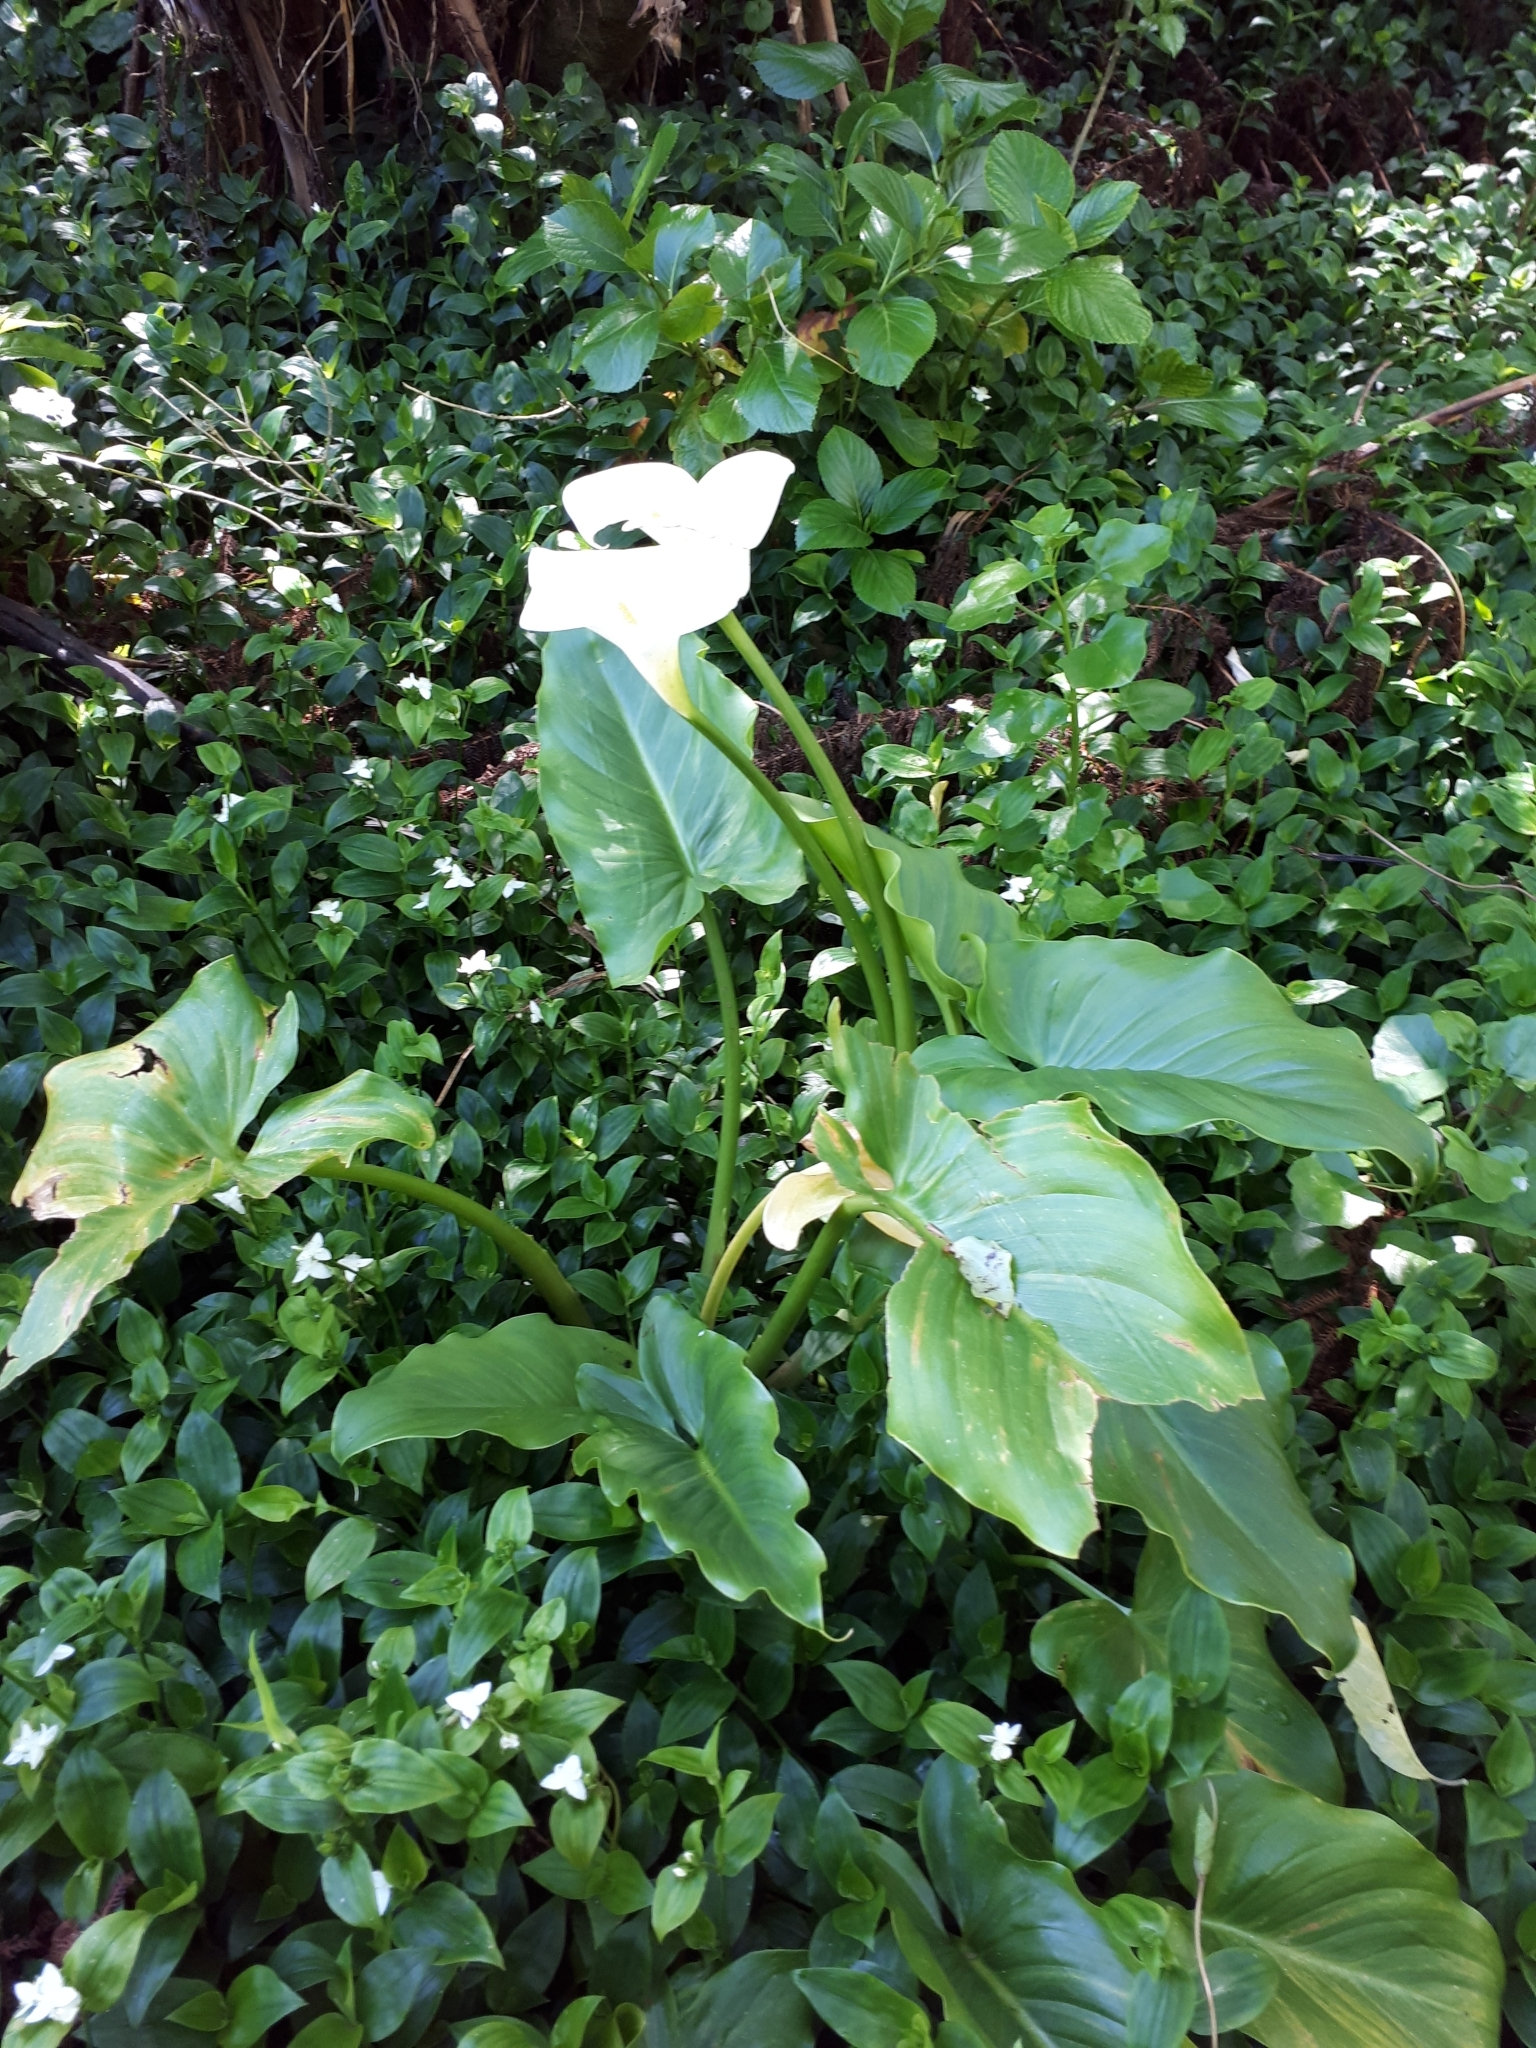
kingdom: Plantae
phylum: Tracheophyta
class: Liliopsida
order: Alismatales
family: Araceae
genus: Zantedeschia
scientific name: Zantedeschia aethiopica
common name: Altar-lily
